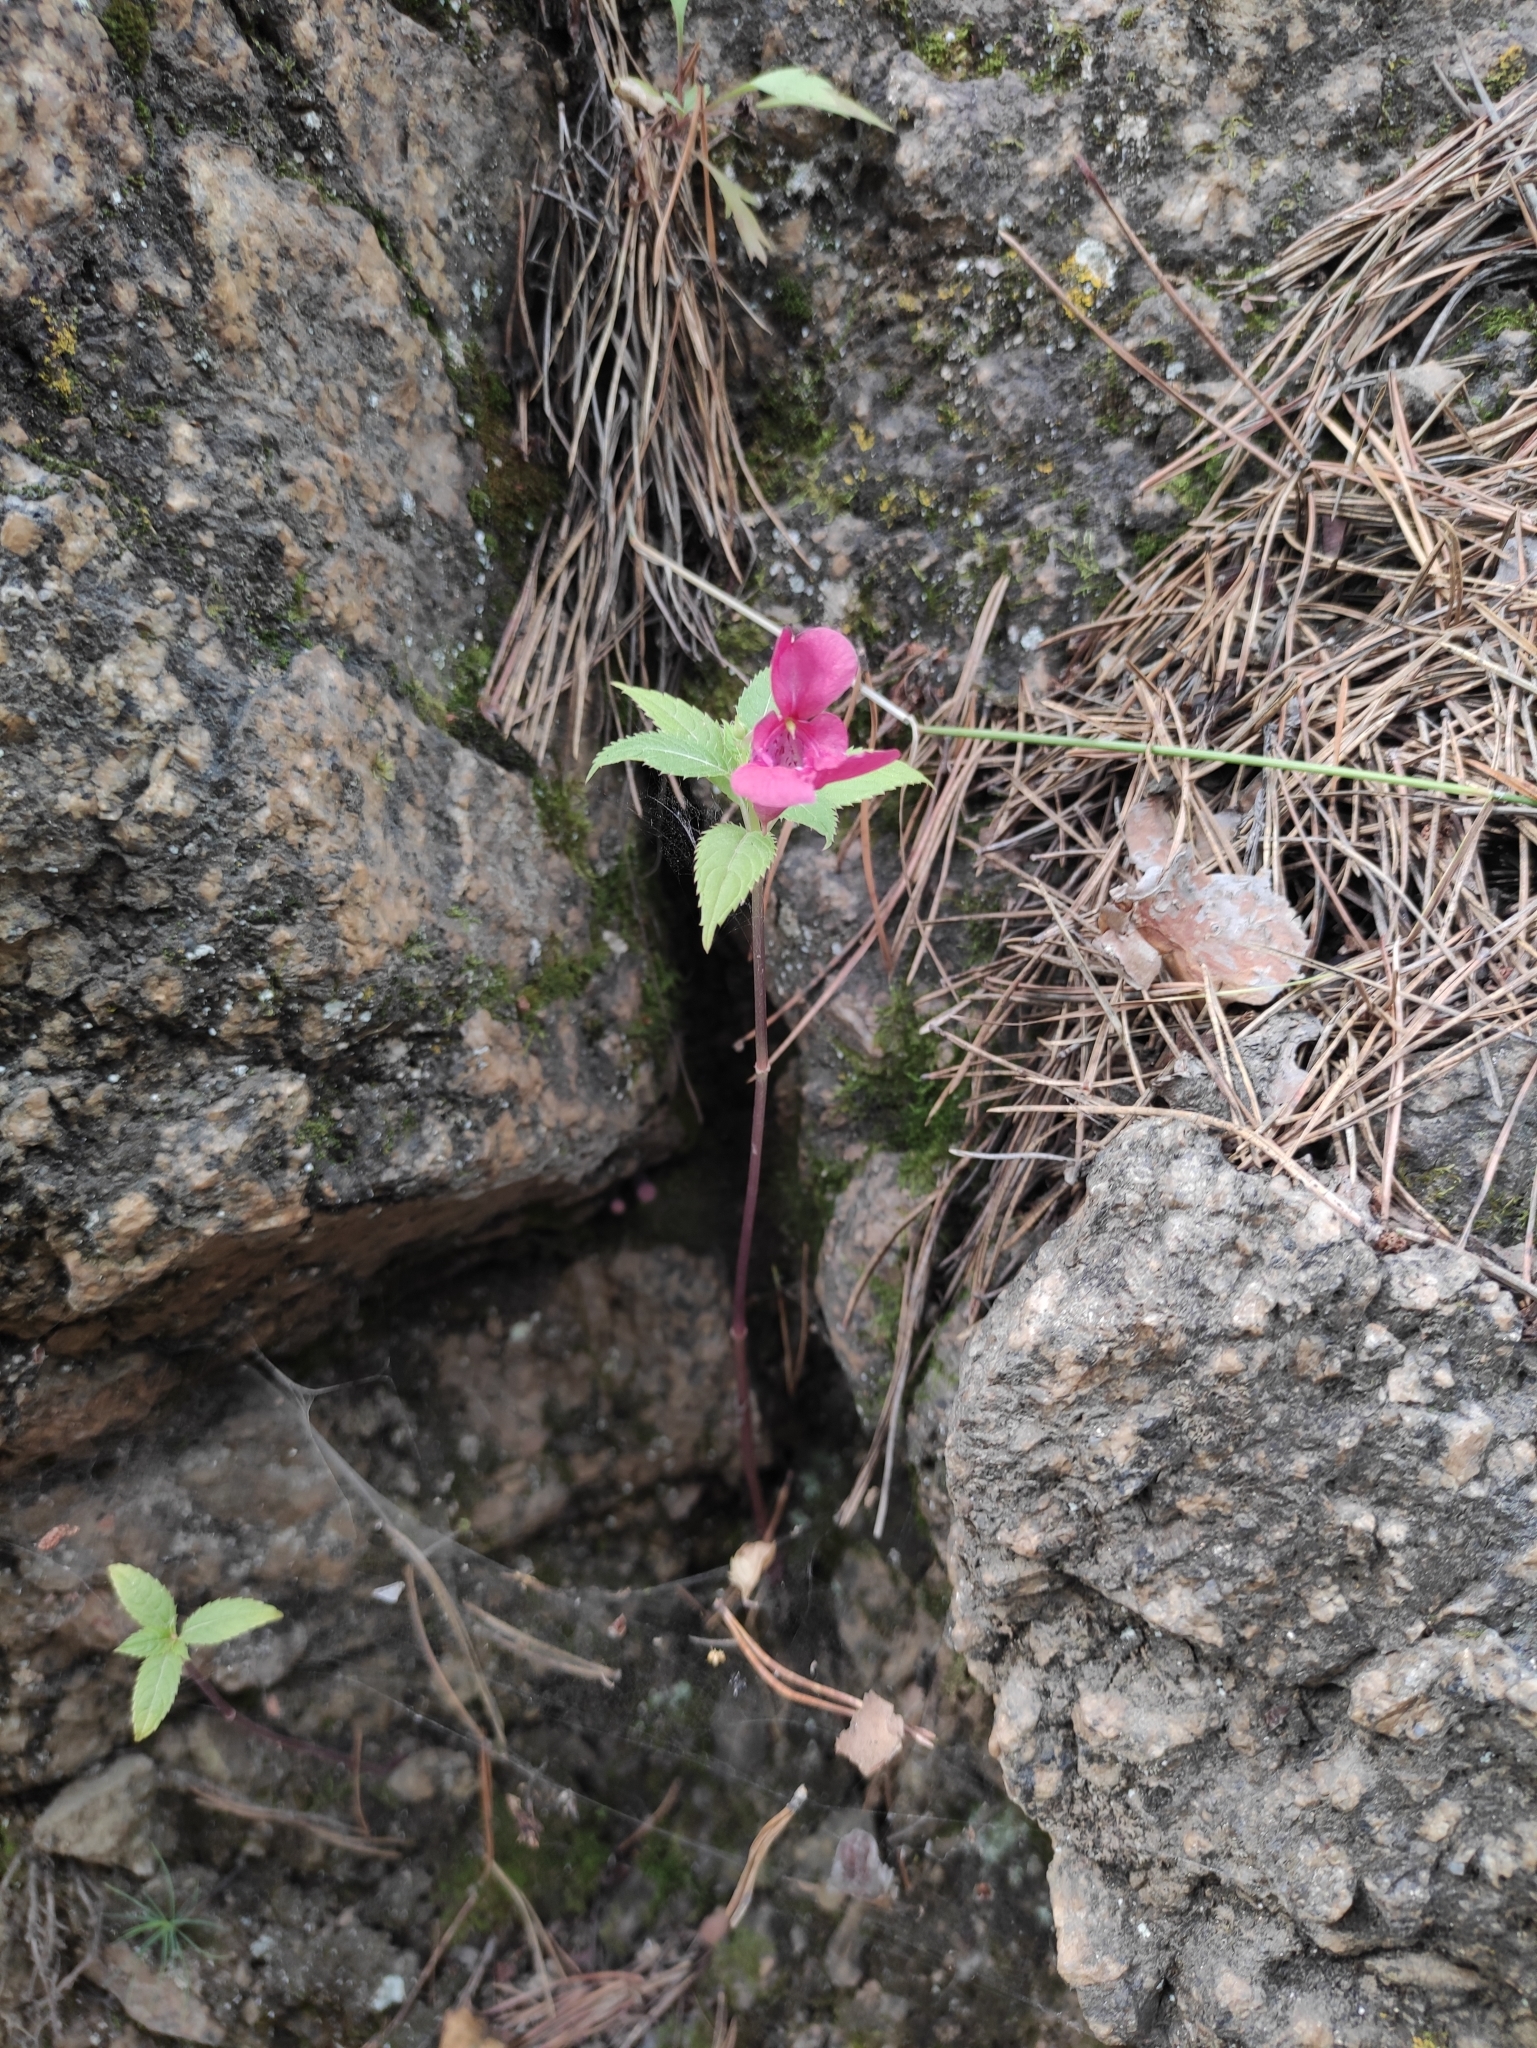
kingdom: Plantae
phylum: Tracheophyta
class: Magnoliopsida
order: Ericales
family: Balsaminaceae
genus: Impatiens
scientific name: Impatiens glandulifera
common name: Himalayan balsam
